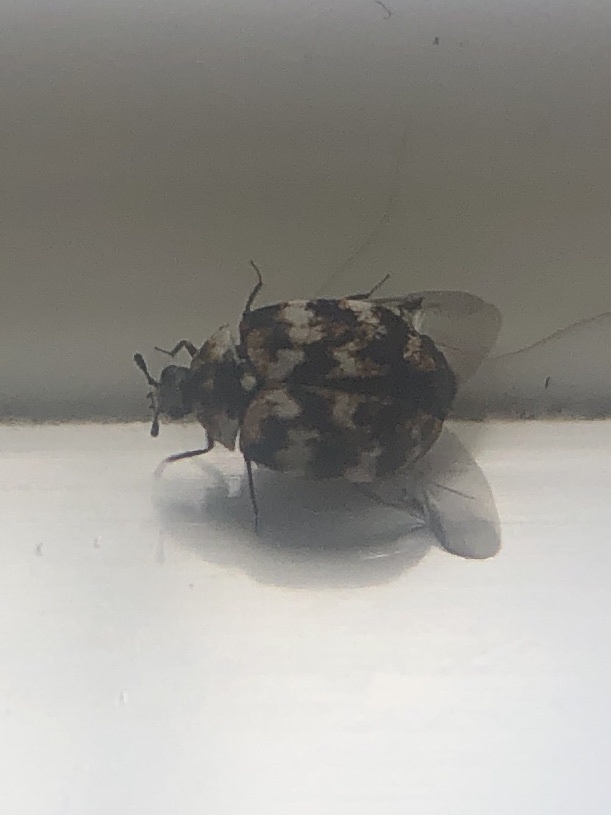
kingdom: Animalia
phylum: Arthropoda
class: Insecta
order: Coleoptera
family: Dermestidae
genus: Anthrenus
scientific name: Anthrenus verbasci
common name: Varied carpet beetle
